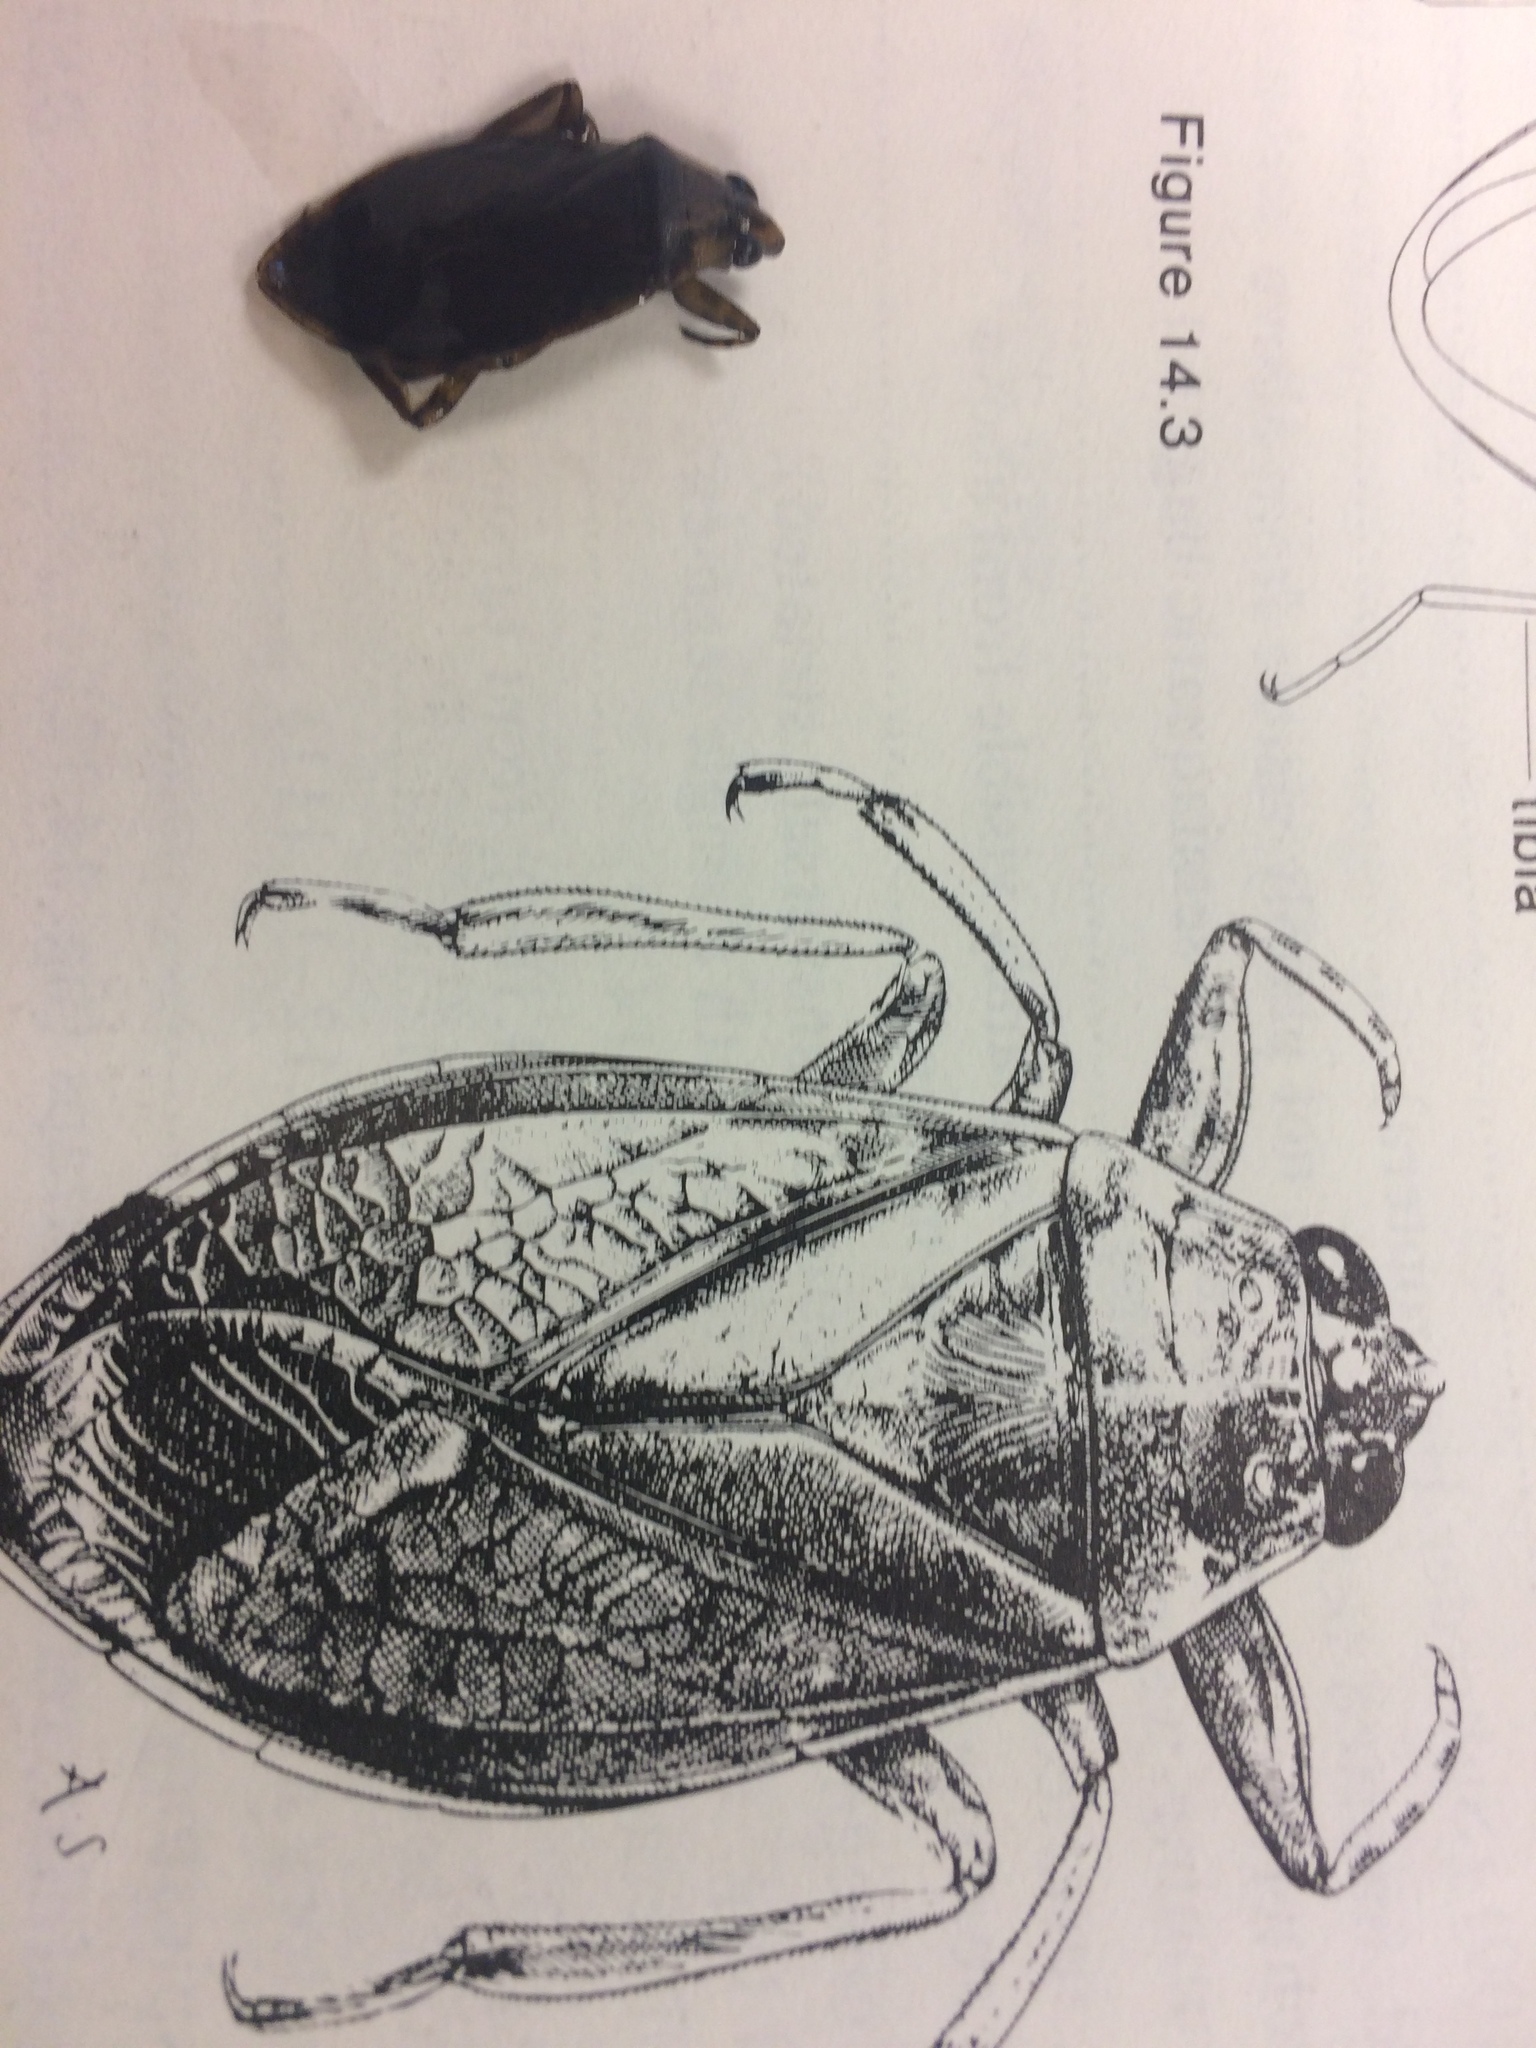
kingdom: Animalia
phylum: Arthropoda
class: Insecta
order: Hemiptera
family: Belostomatidae
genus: Belostoma
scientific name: Belostoma
